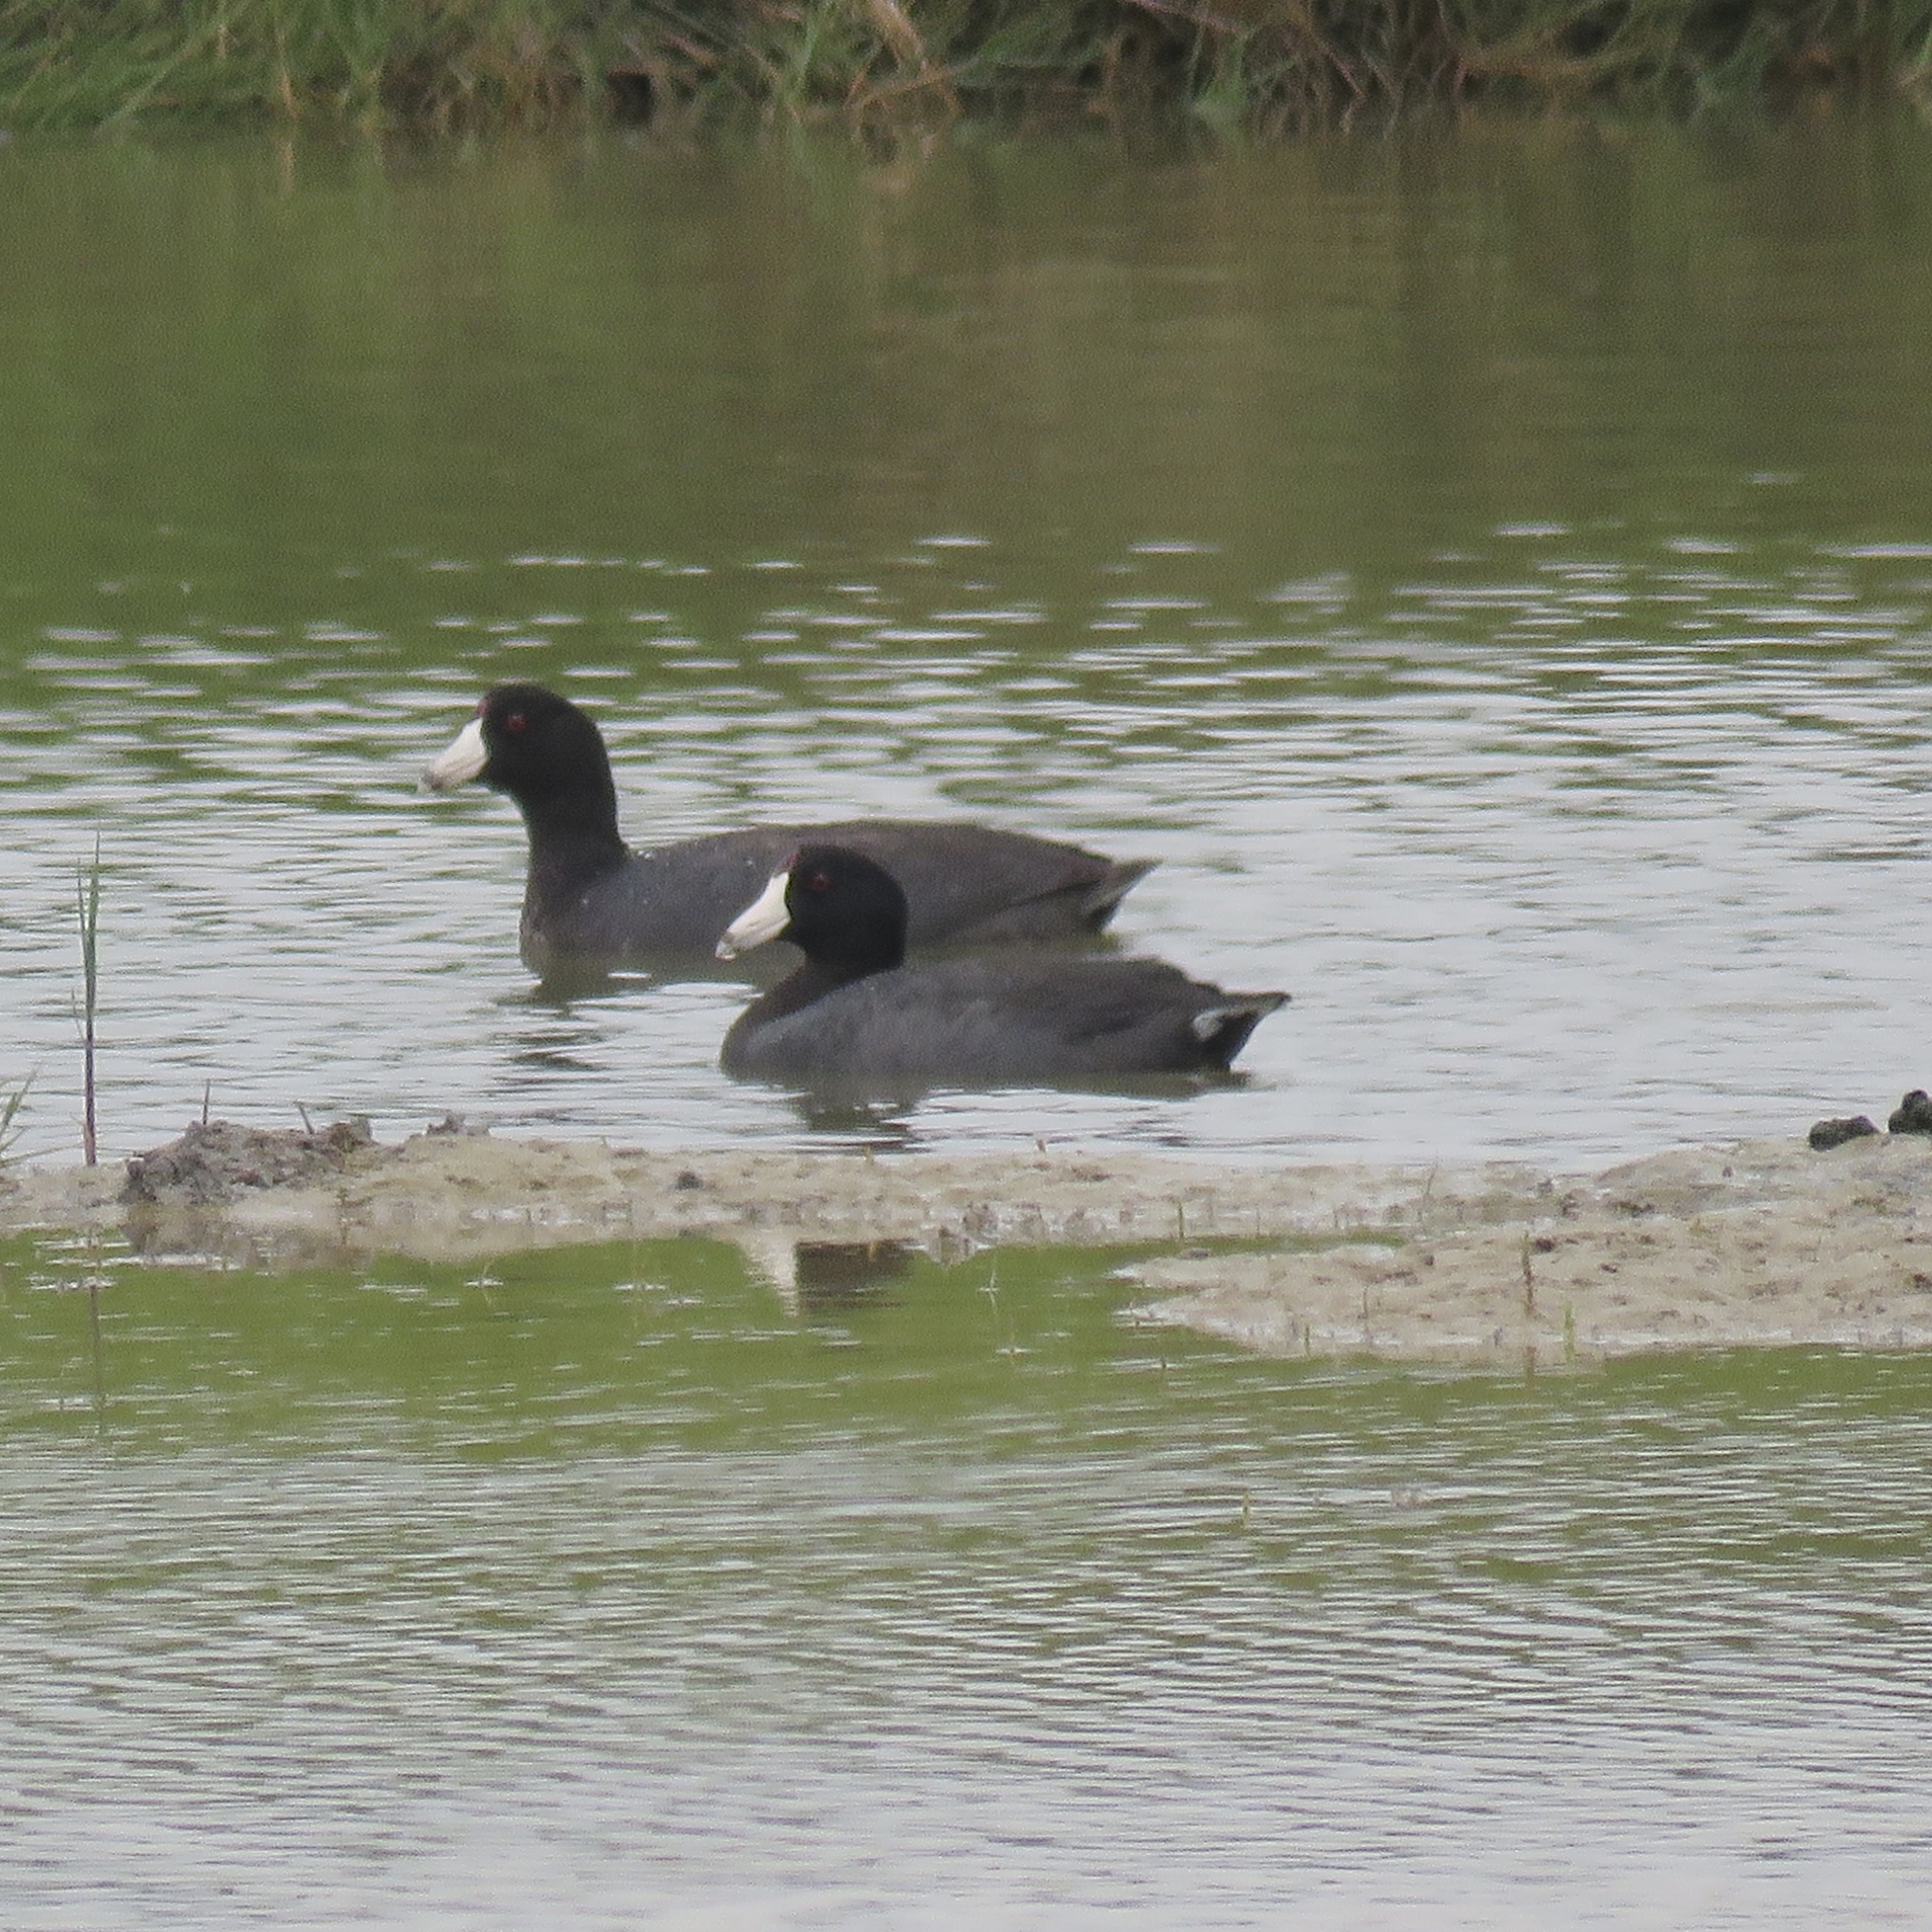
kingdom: Animalia
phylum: Chordata
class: Aves
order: Gruiformes
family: Rallidae
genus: Fulica
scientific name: Fulica americana
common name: American coot
